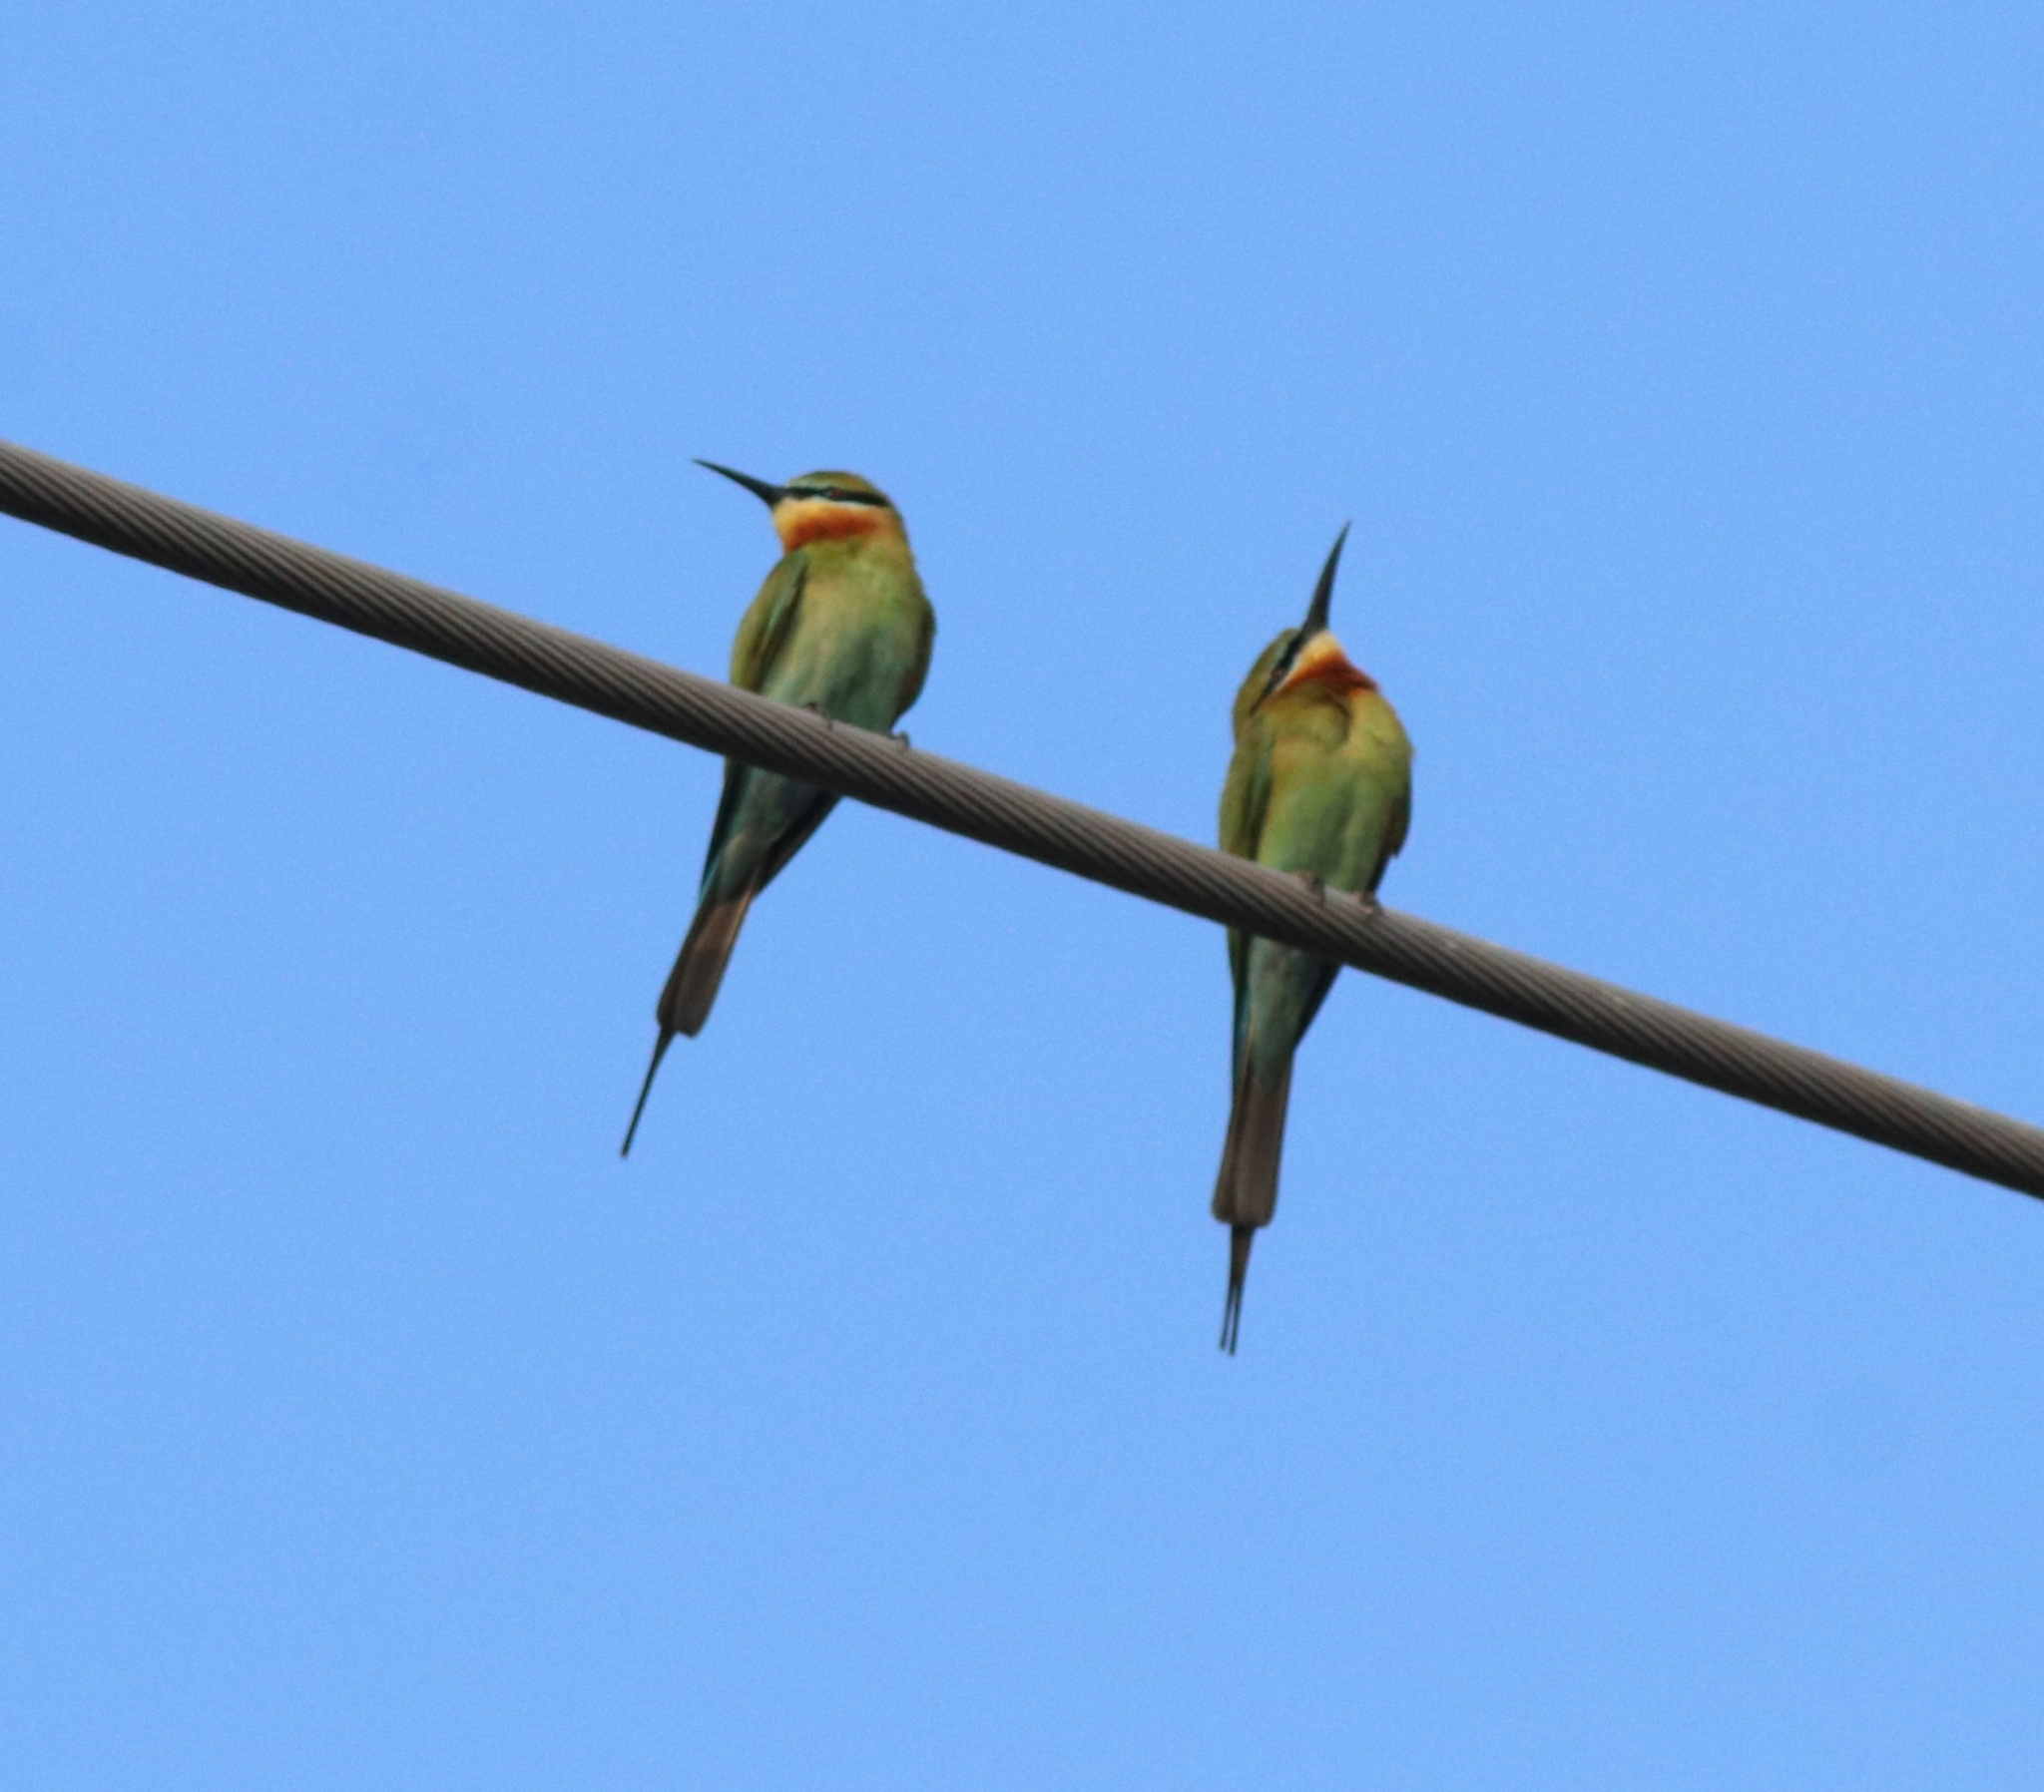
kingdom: Animalia
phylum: Chordata
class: Aves
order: Coraciiformes
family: Meropidae
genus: Merops
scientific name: Merops philippinus
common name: Blue-tailed bee-eater
